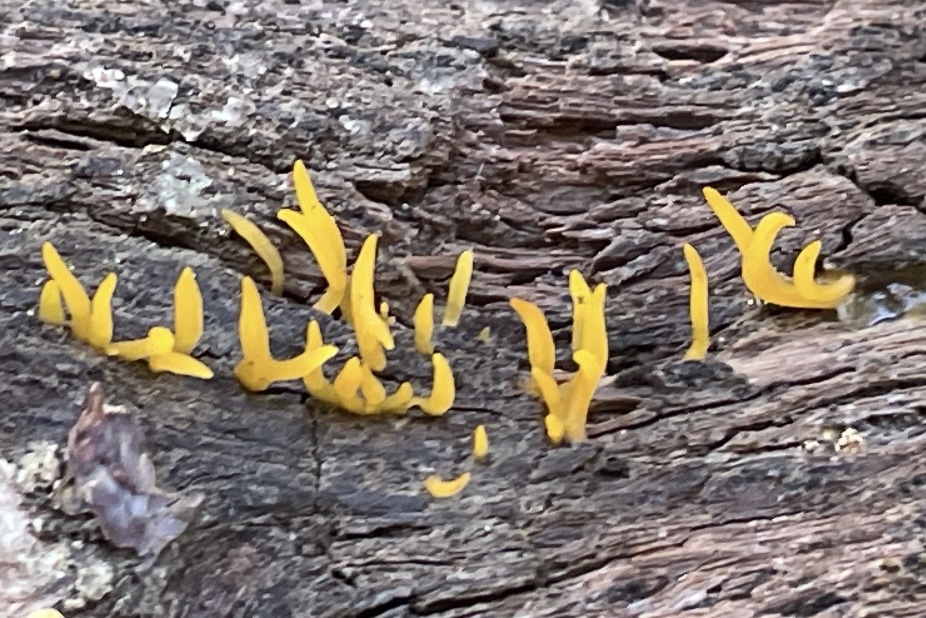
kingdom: Fungi
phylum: Basidiomycota
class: Dacrymycetes
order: Dacrymycetales
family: Dacrymycetaceae
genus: Calocera
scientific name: Calocera cornea
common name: Small stagshorn
